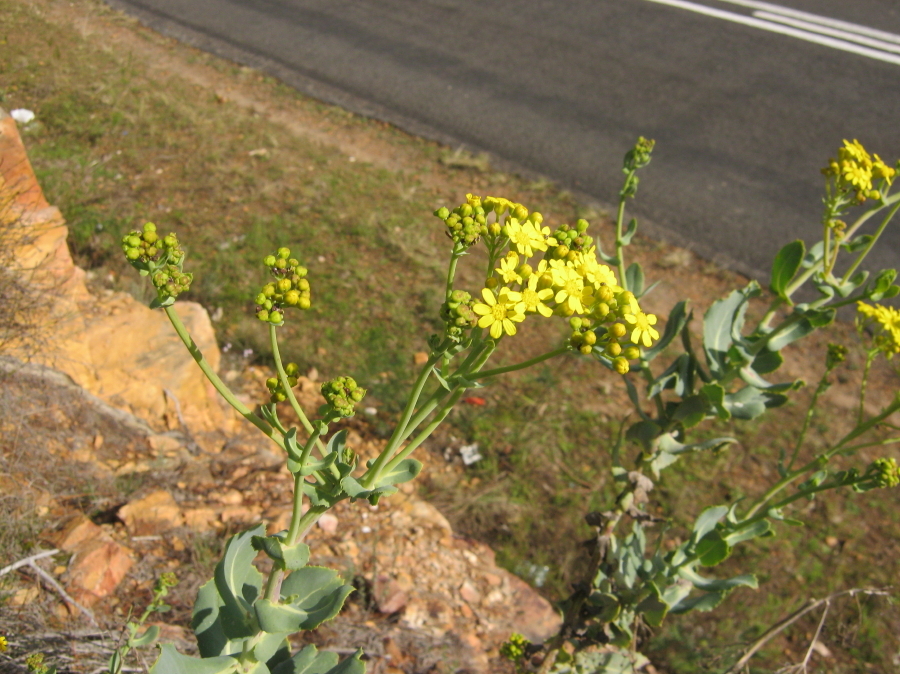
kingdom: Plantae
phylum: Tracheophyta
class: Magnoliopsida
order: Asterales
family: Asteraceae
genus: Othonna
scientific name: Othonna parviflora
